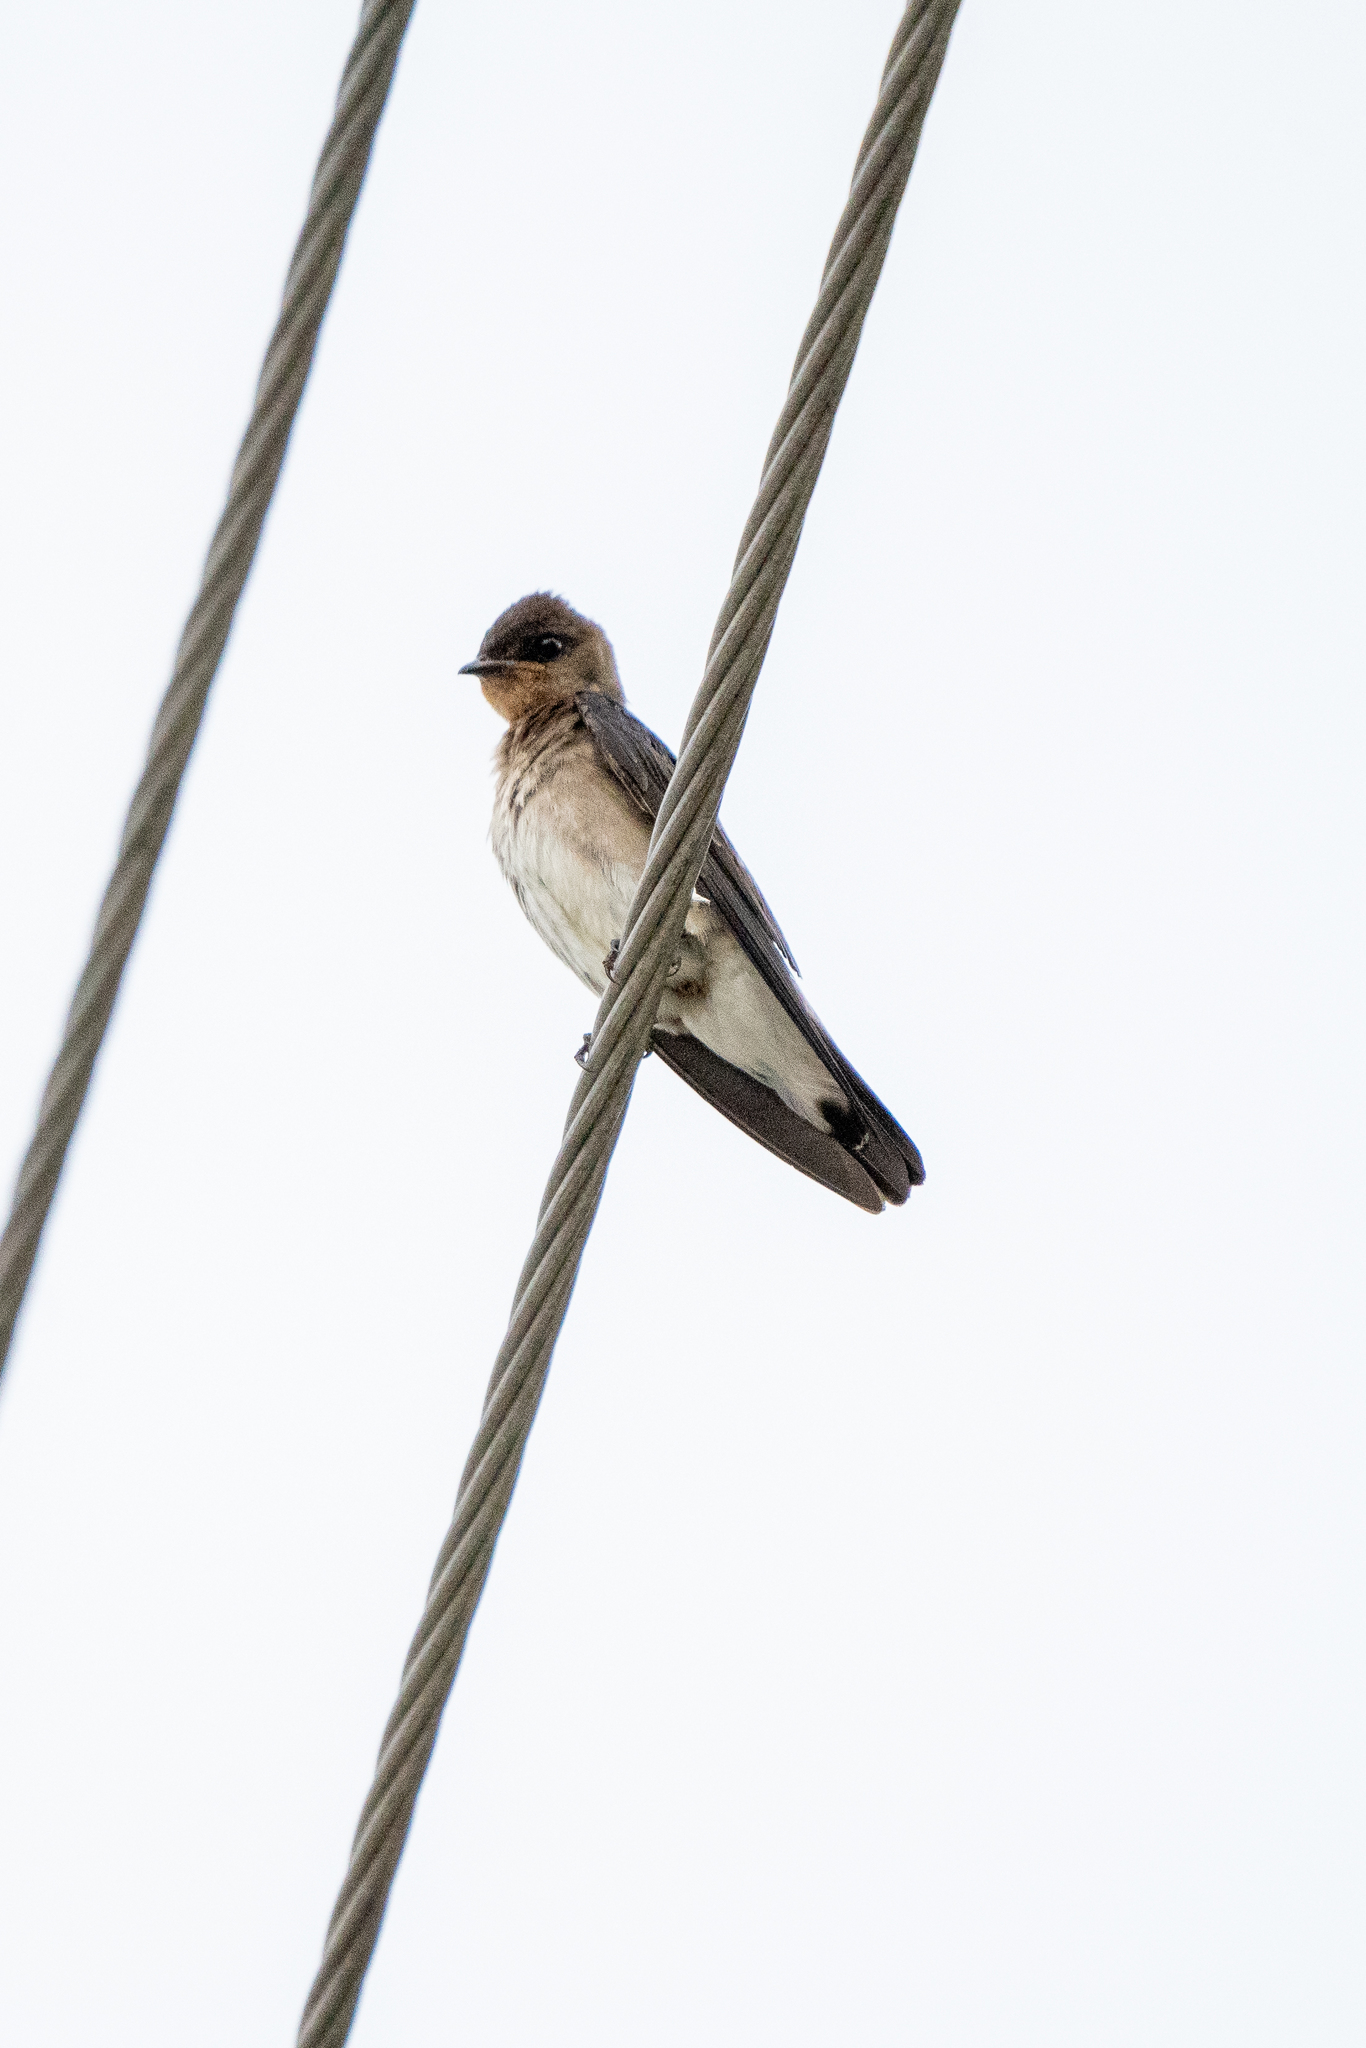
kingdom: Animalia
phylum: Chordata
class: Aves
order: Passeriformes
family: Hirundinidae
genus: Stelgidopteryx
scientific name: Stelgidopteryx ruficollis
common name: Southern rough-winged swallow
